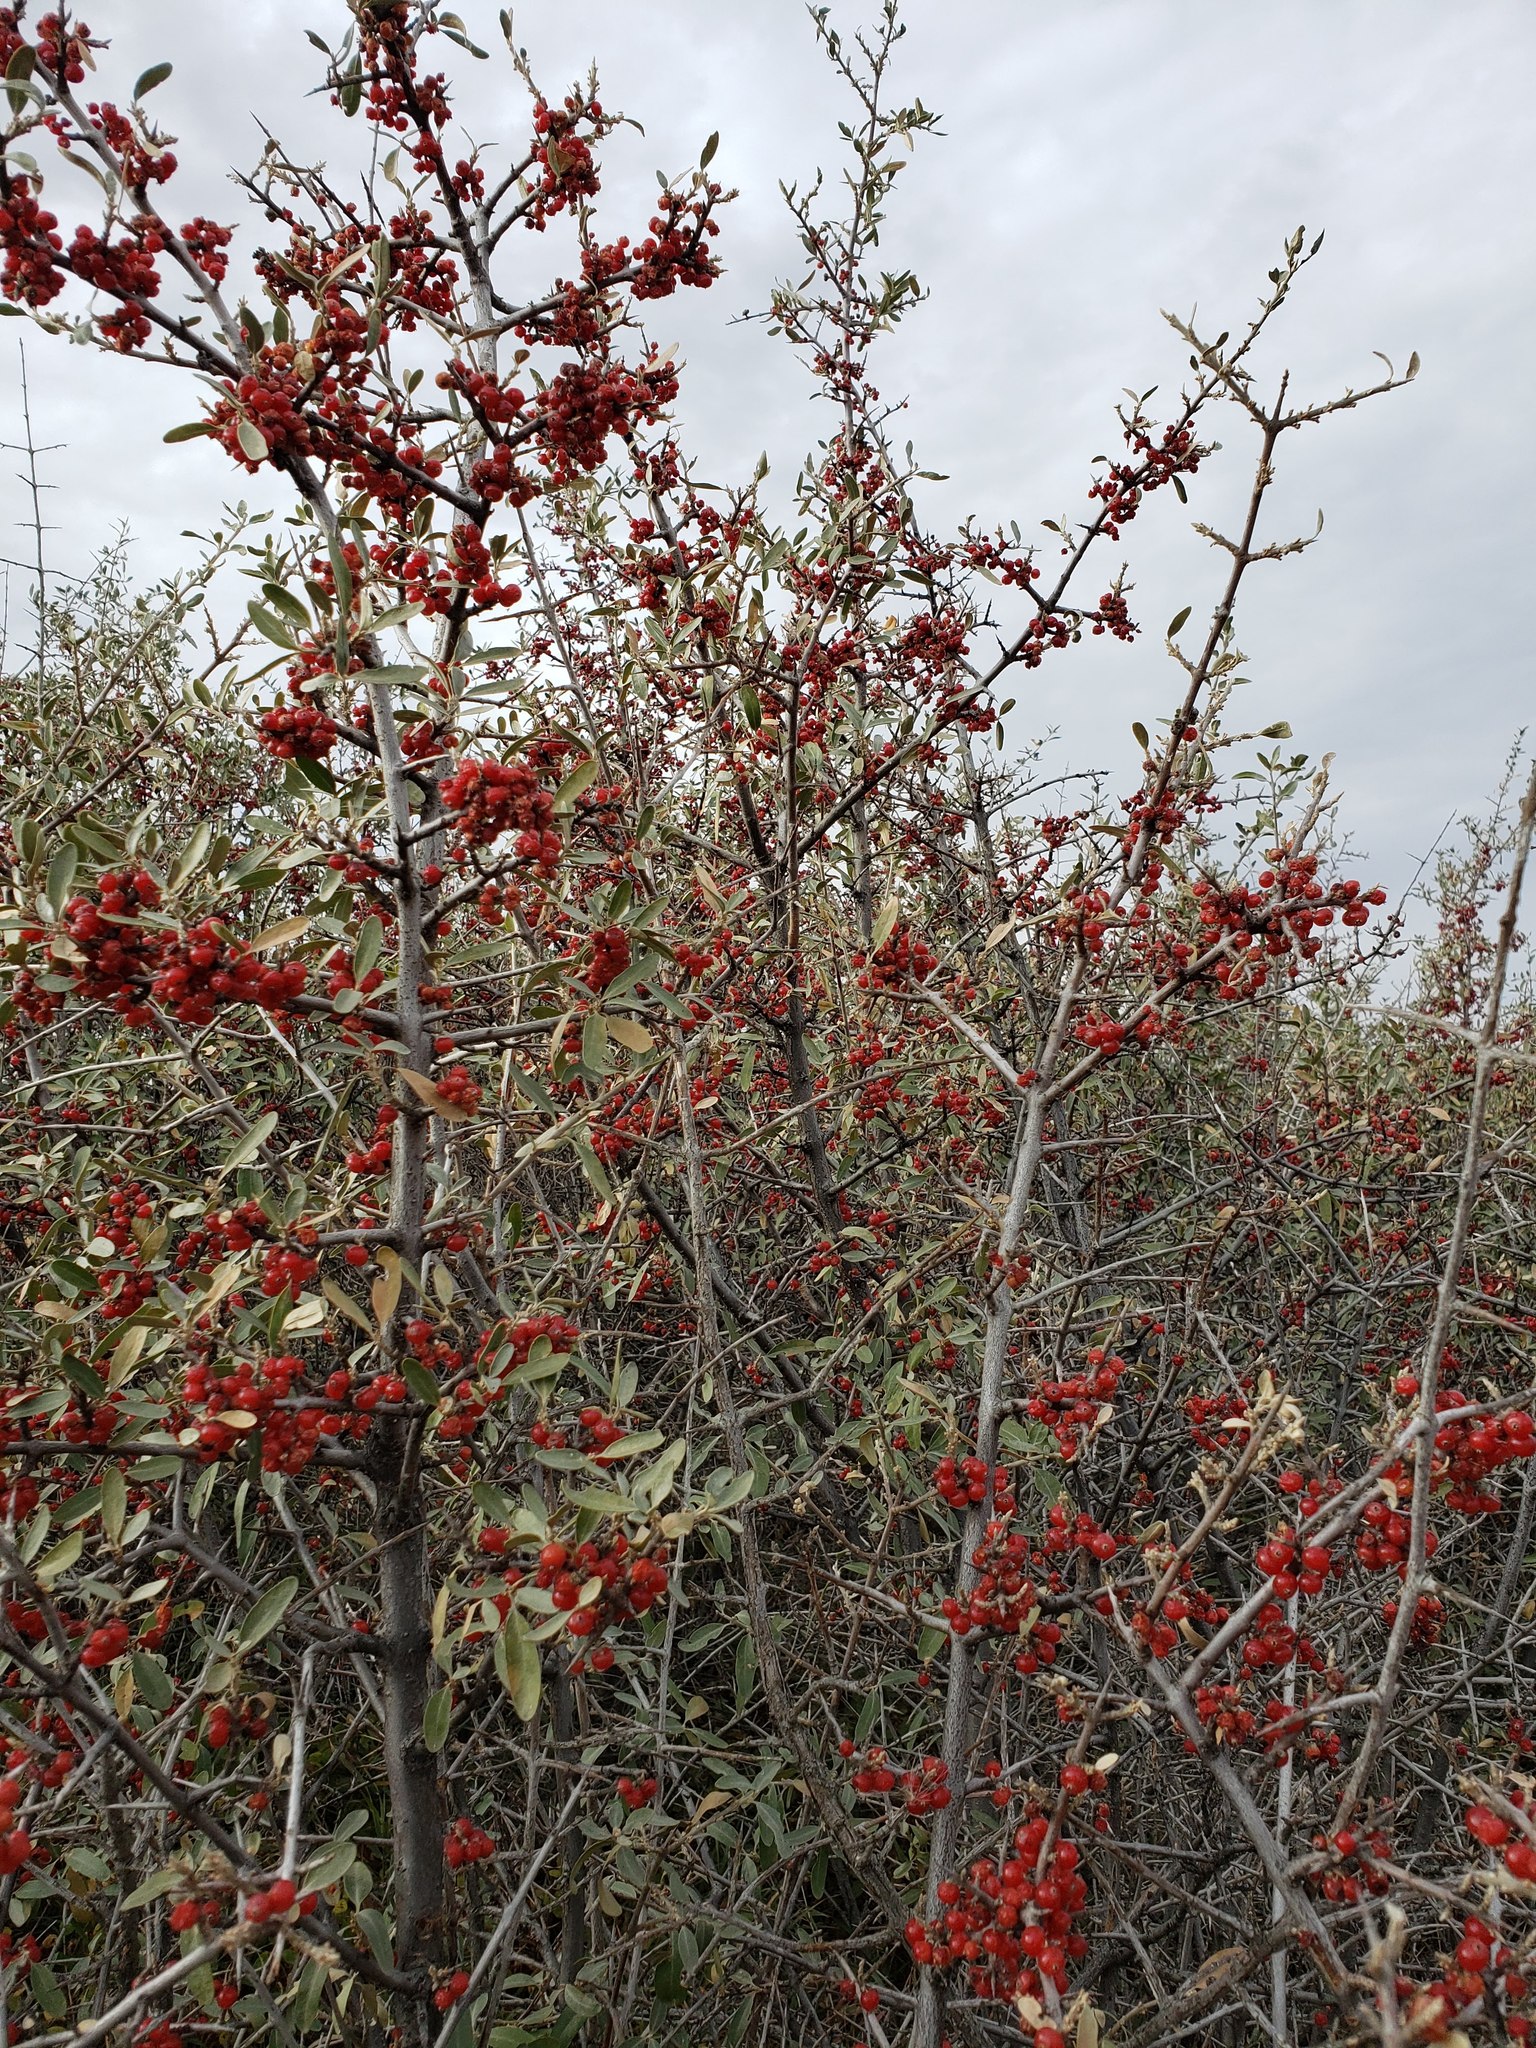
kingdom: Plantae
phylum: Tracheophyta
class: Magnoliopsida
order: Rosales
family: Elaeagnaceae
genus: Shepherdia
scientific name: Shepherdia argentea
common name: Silver buffaloberry
